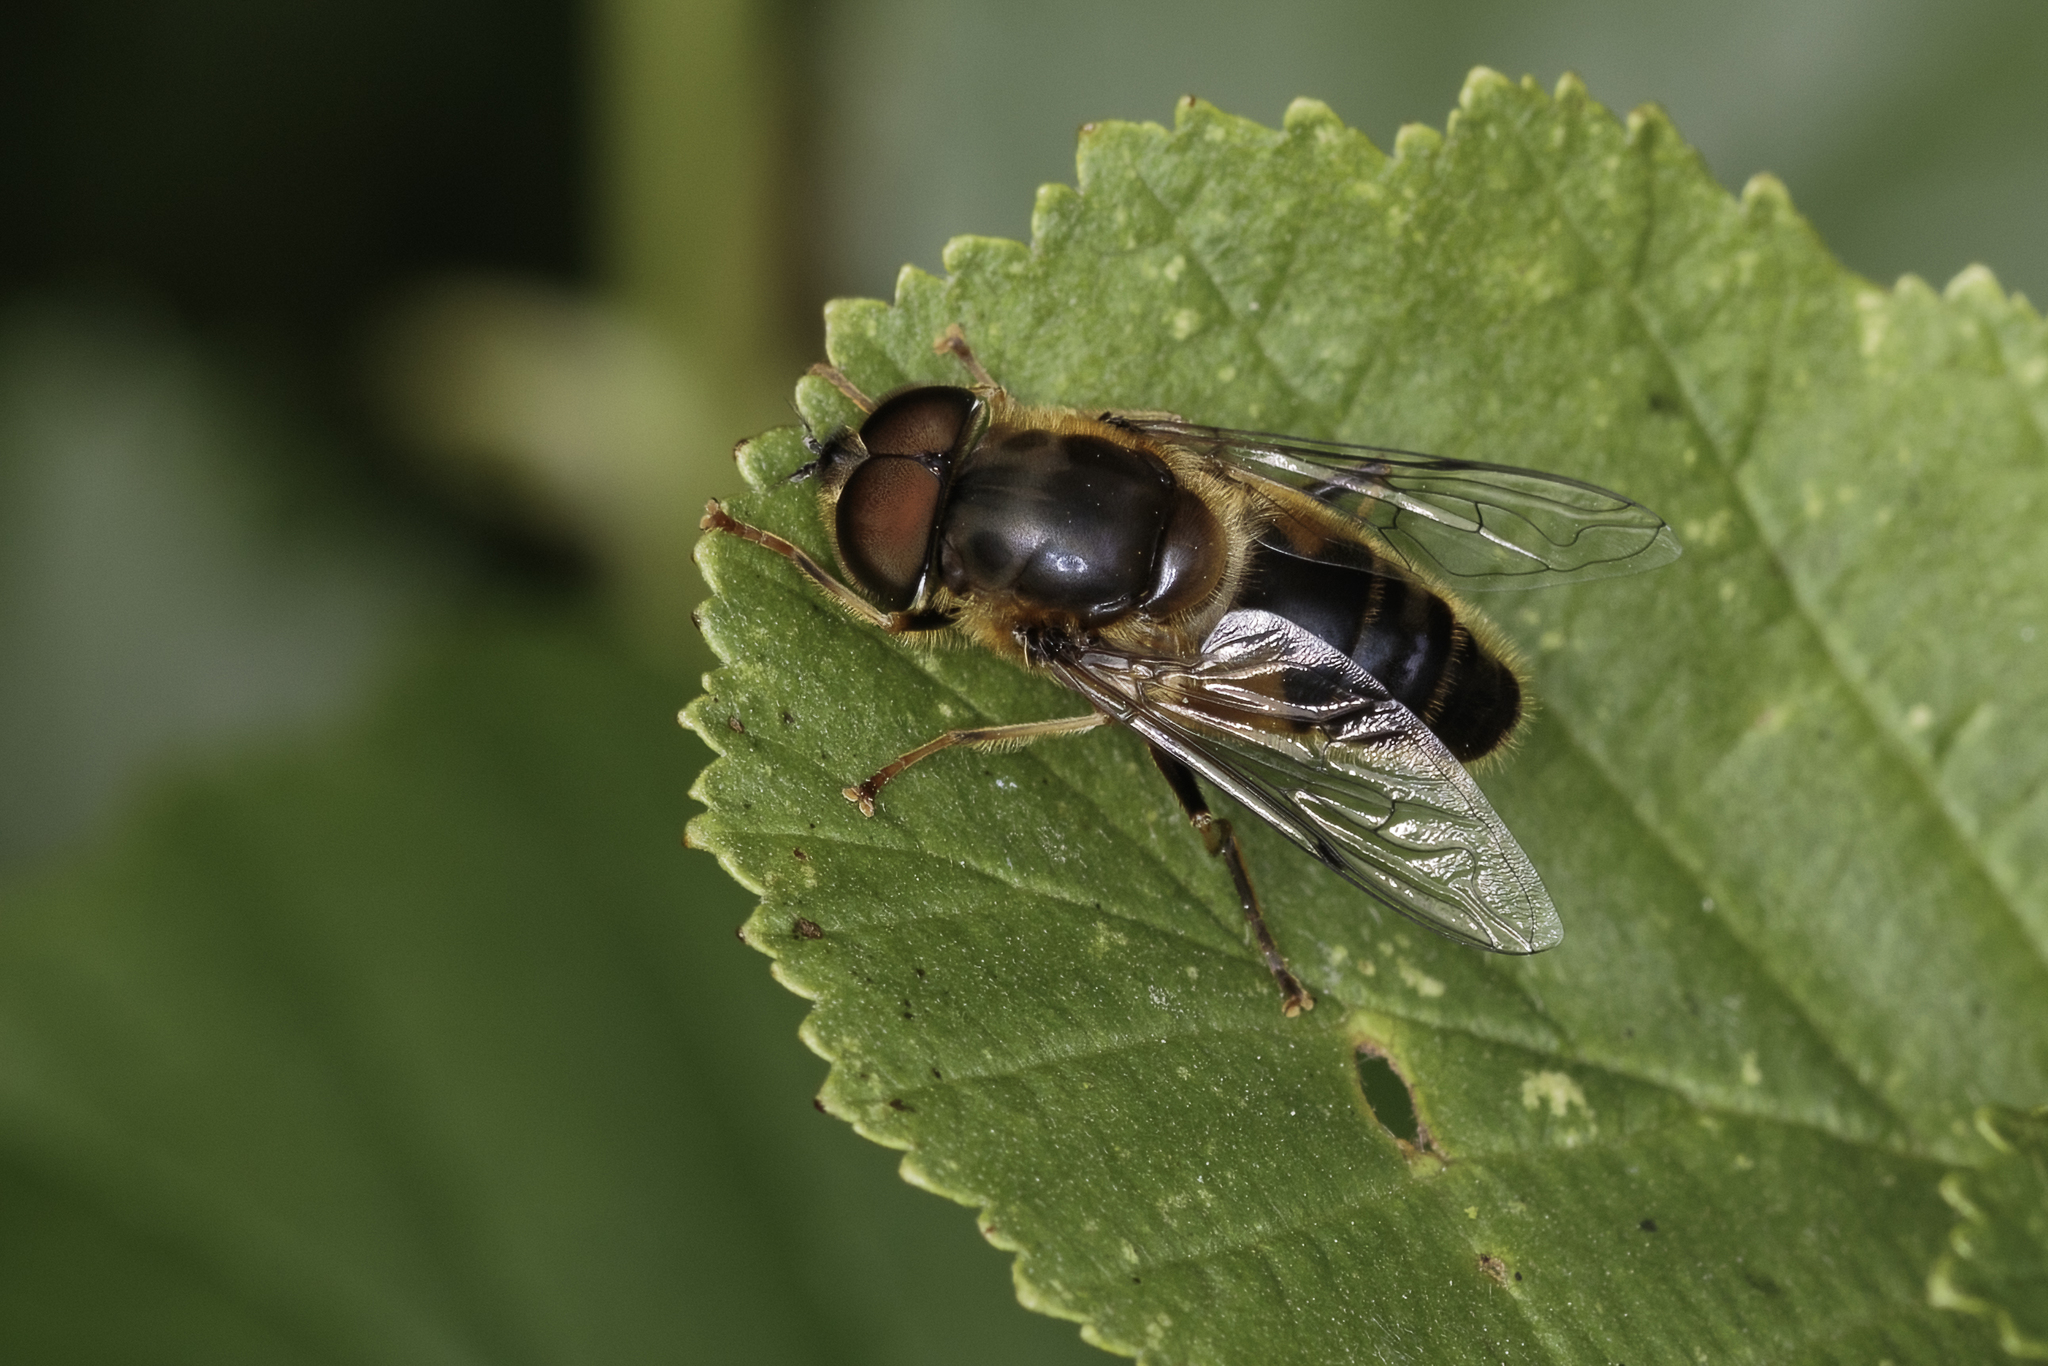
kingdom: Animalia
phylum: Arthropoda
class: Insecta
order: Diptera
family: Syrphidae
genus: Eristalis
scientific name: Eristalis pertinax
